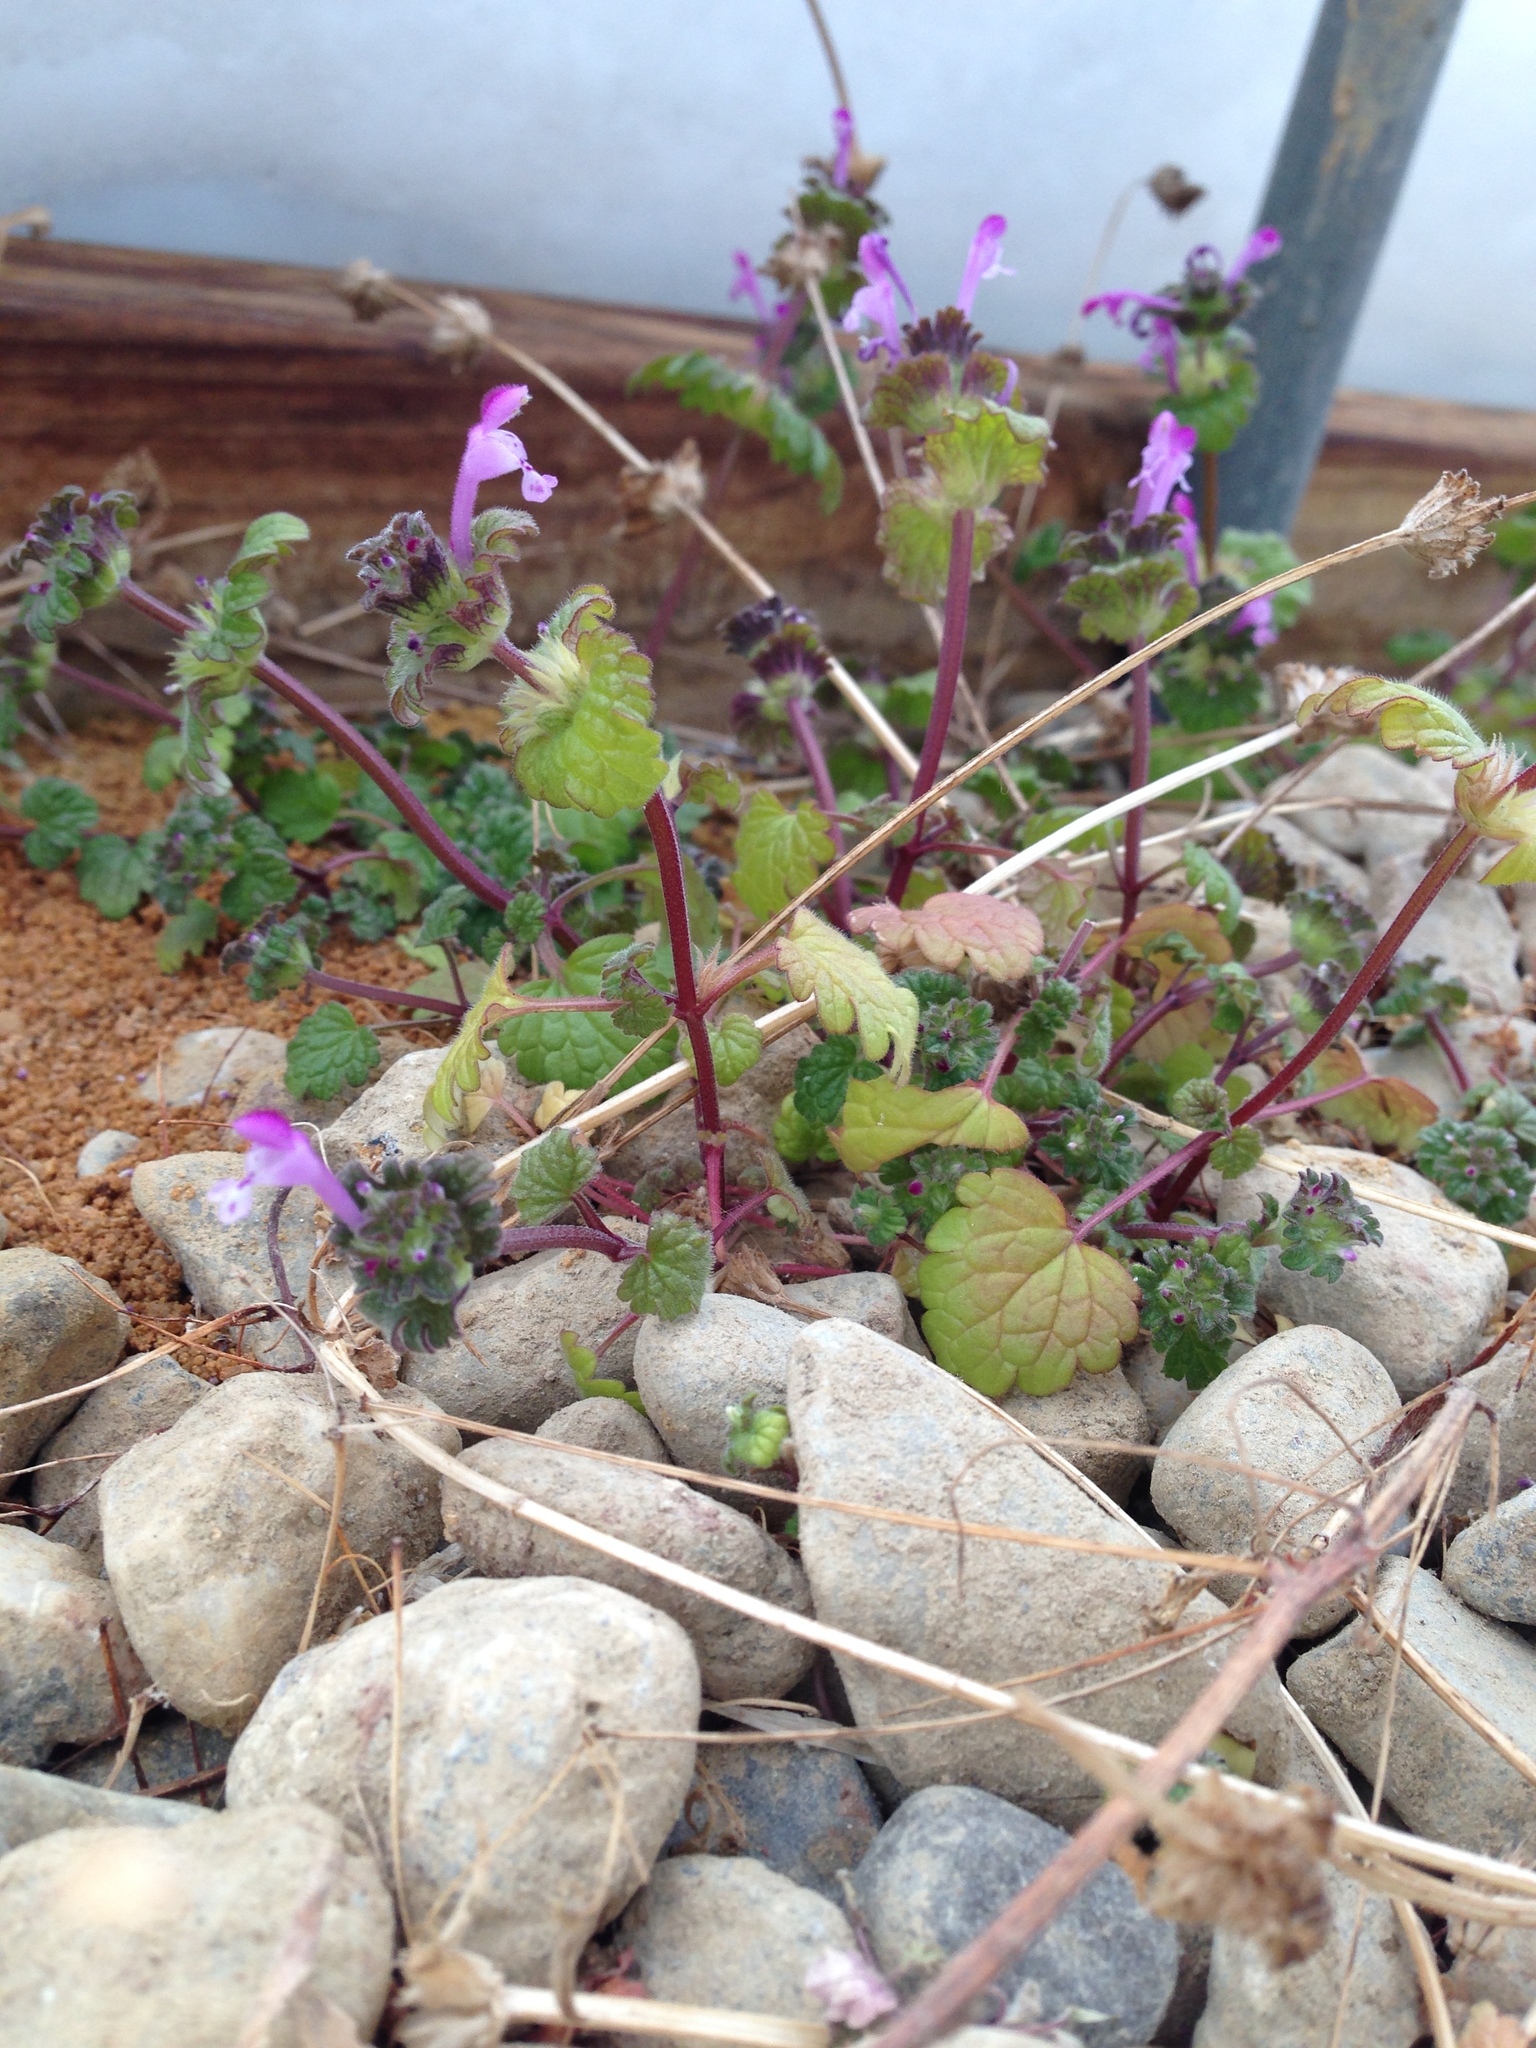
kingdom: Plantae
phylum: Tracheophyta
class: Magnoliopsida
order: Lamiales
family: Lamiaceae
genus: Lamium
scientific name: Lamium amplexicaule
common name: Henbit dead-nettle
